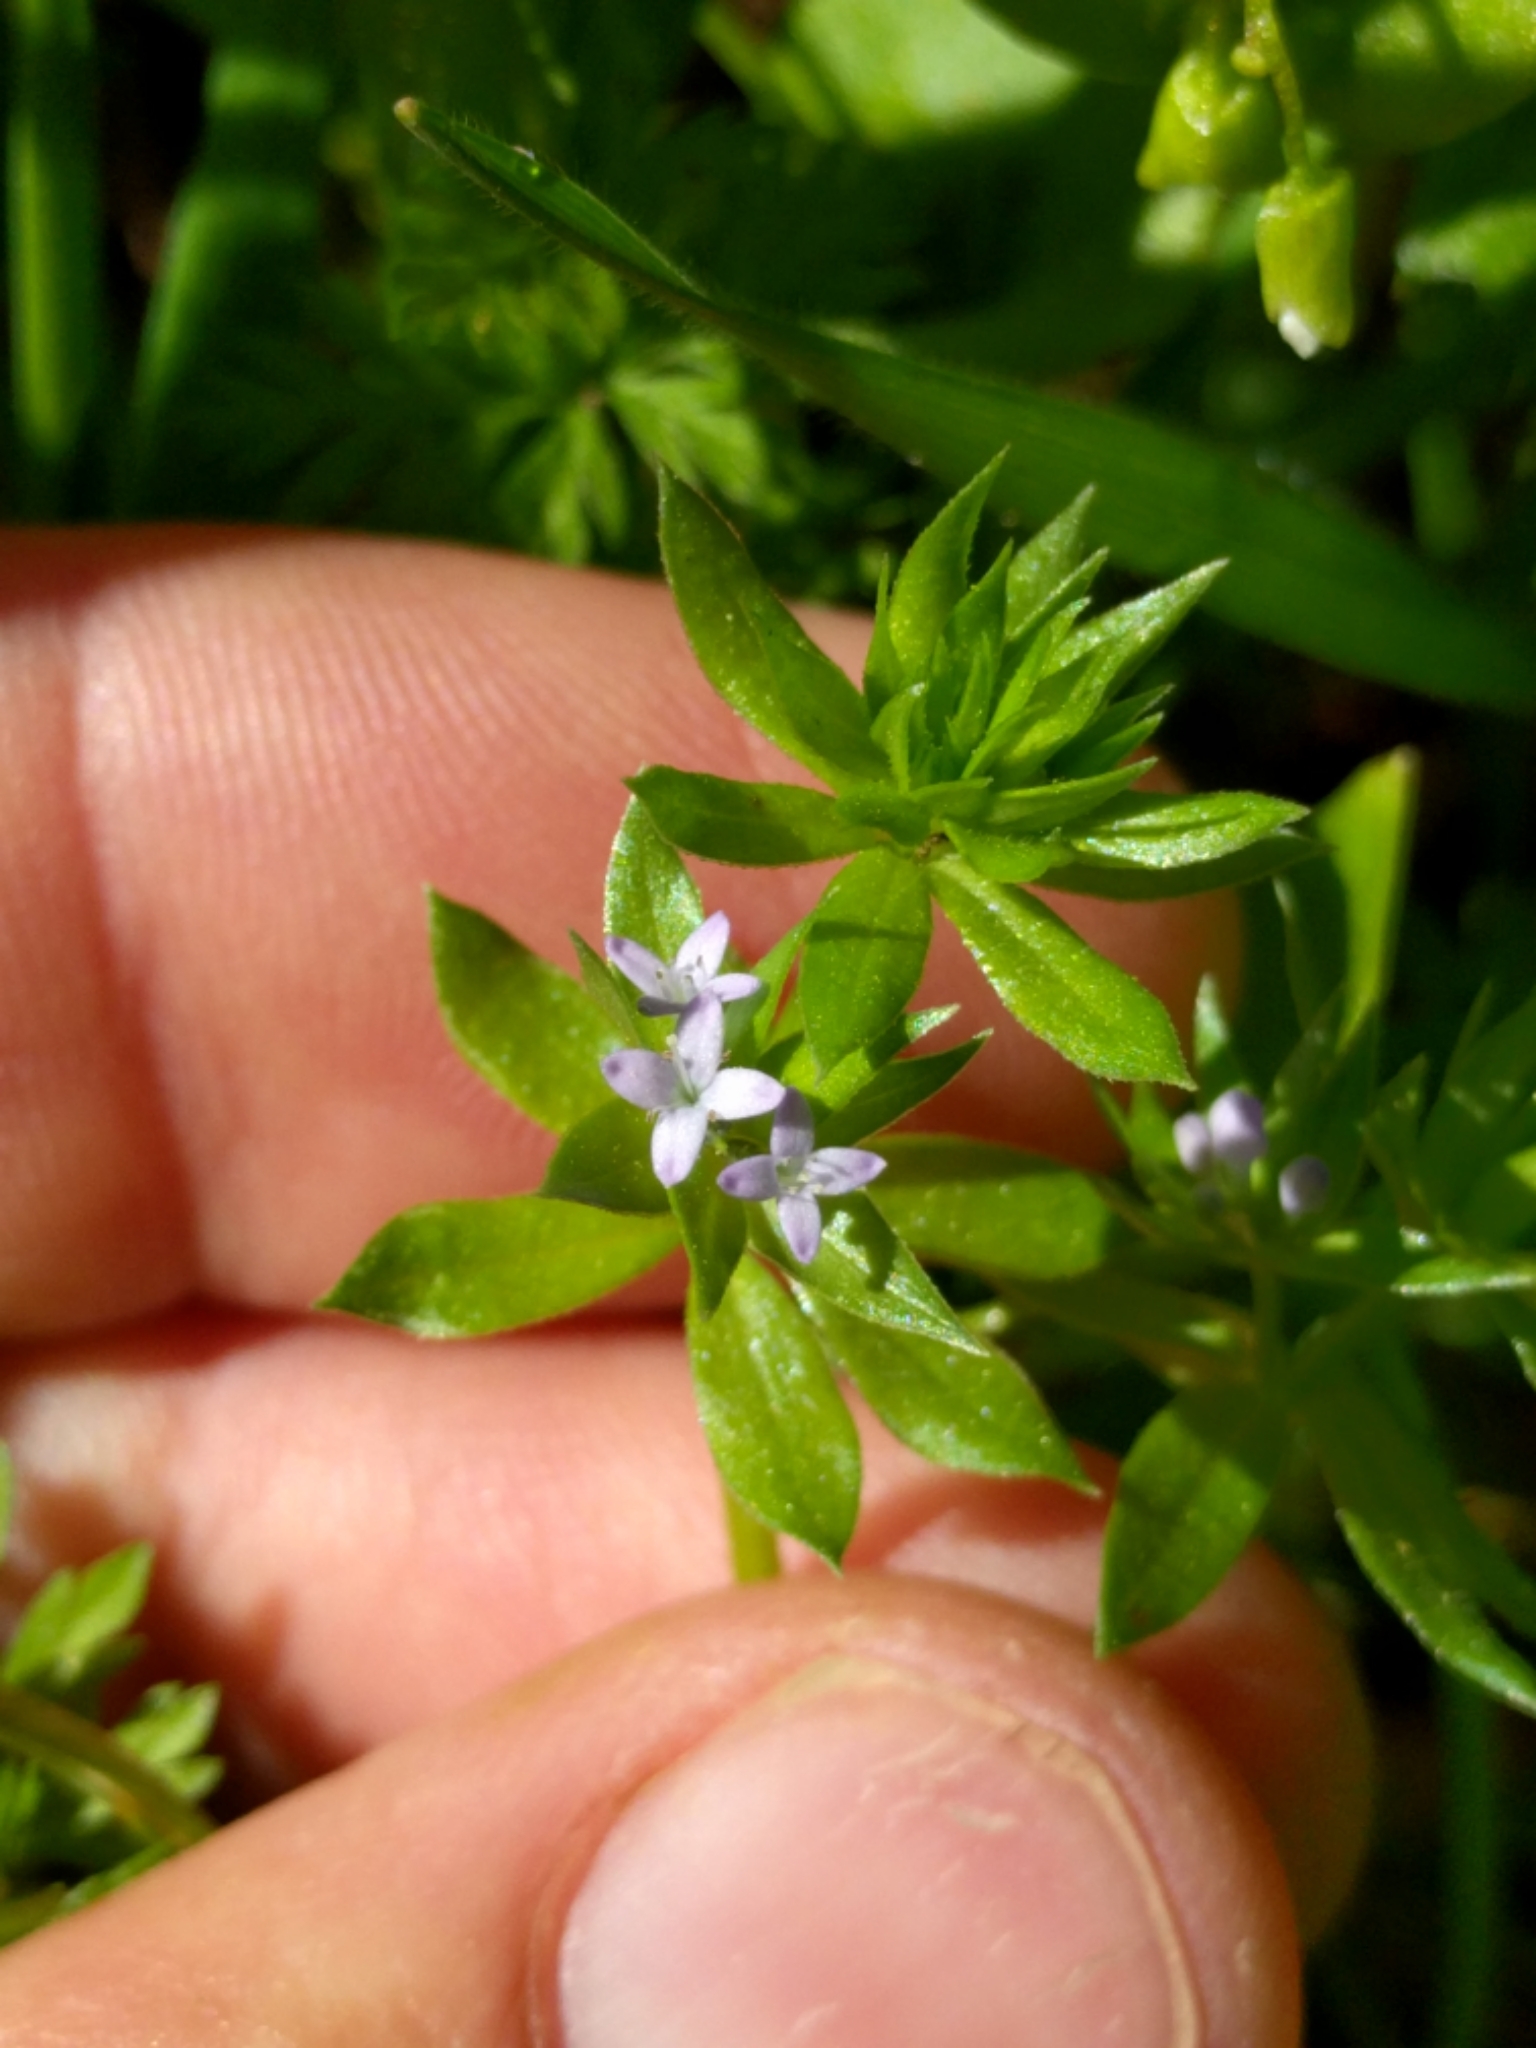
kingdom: Plantae
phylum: Tracheophyta
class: Magnoliopsida
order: Gentianales
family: Rubiaceae
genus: Sherardia
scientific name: Sherardia arvensis
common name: Field madder
